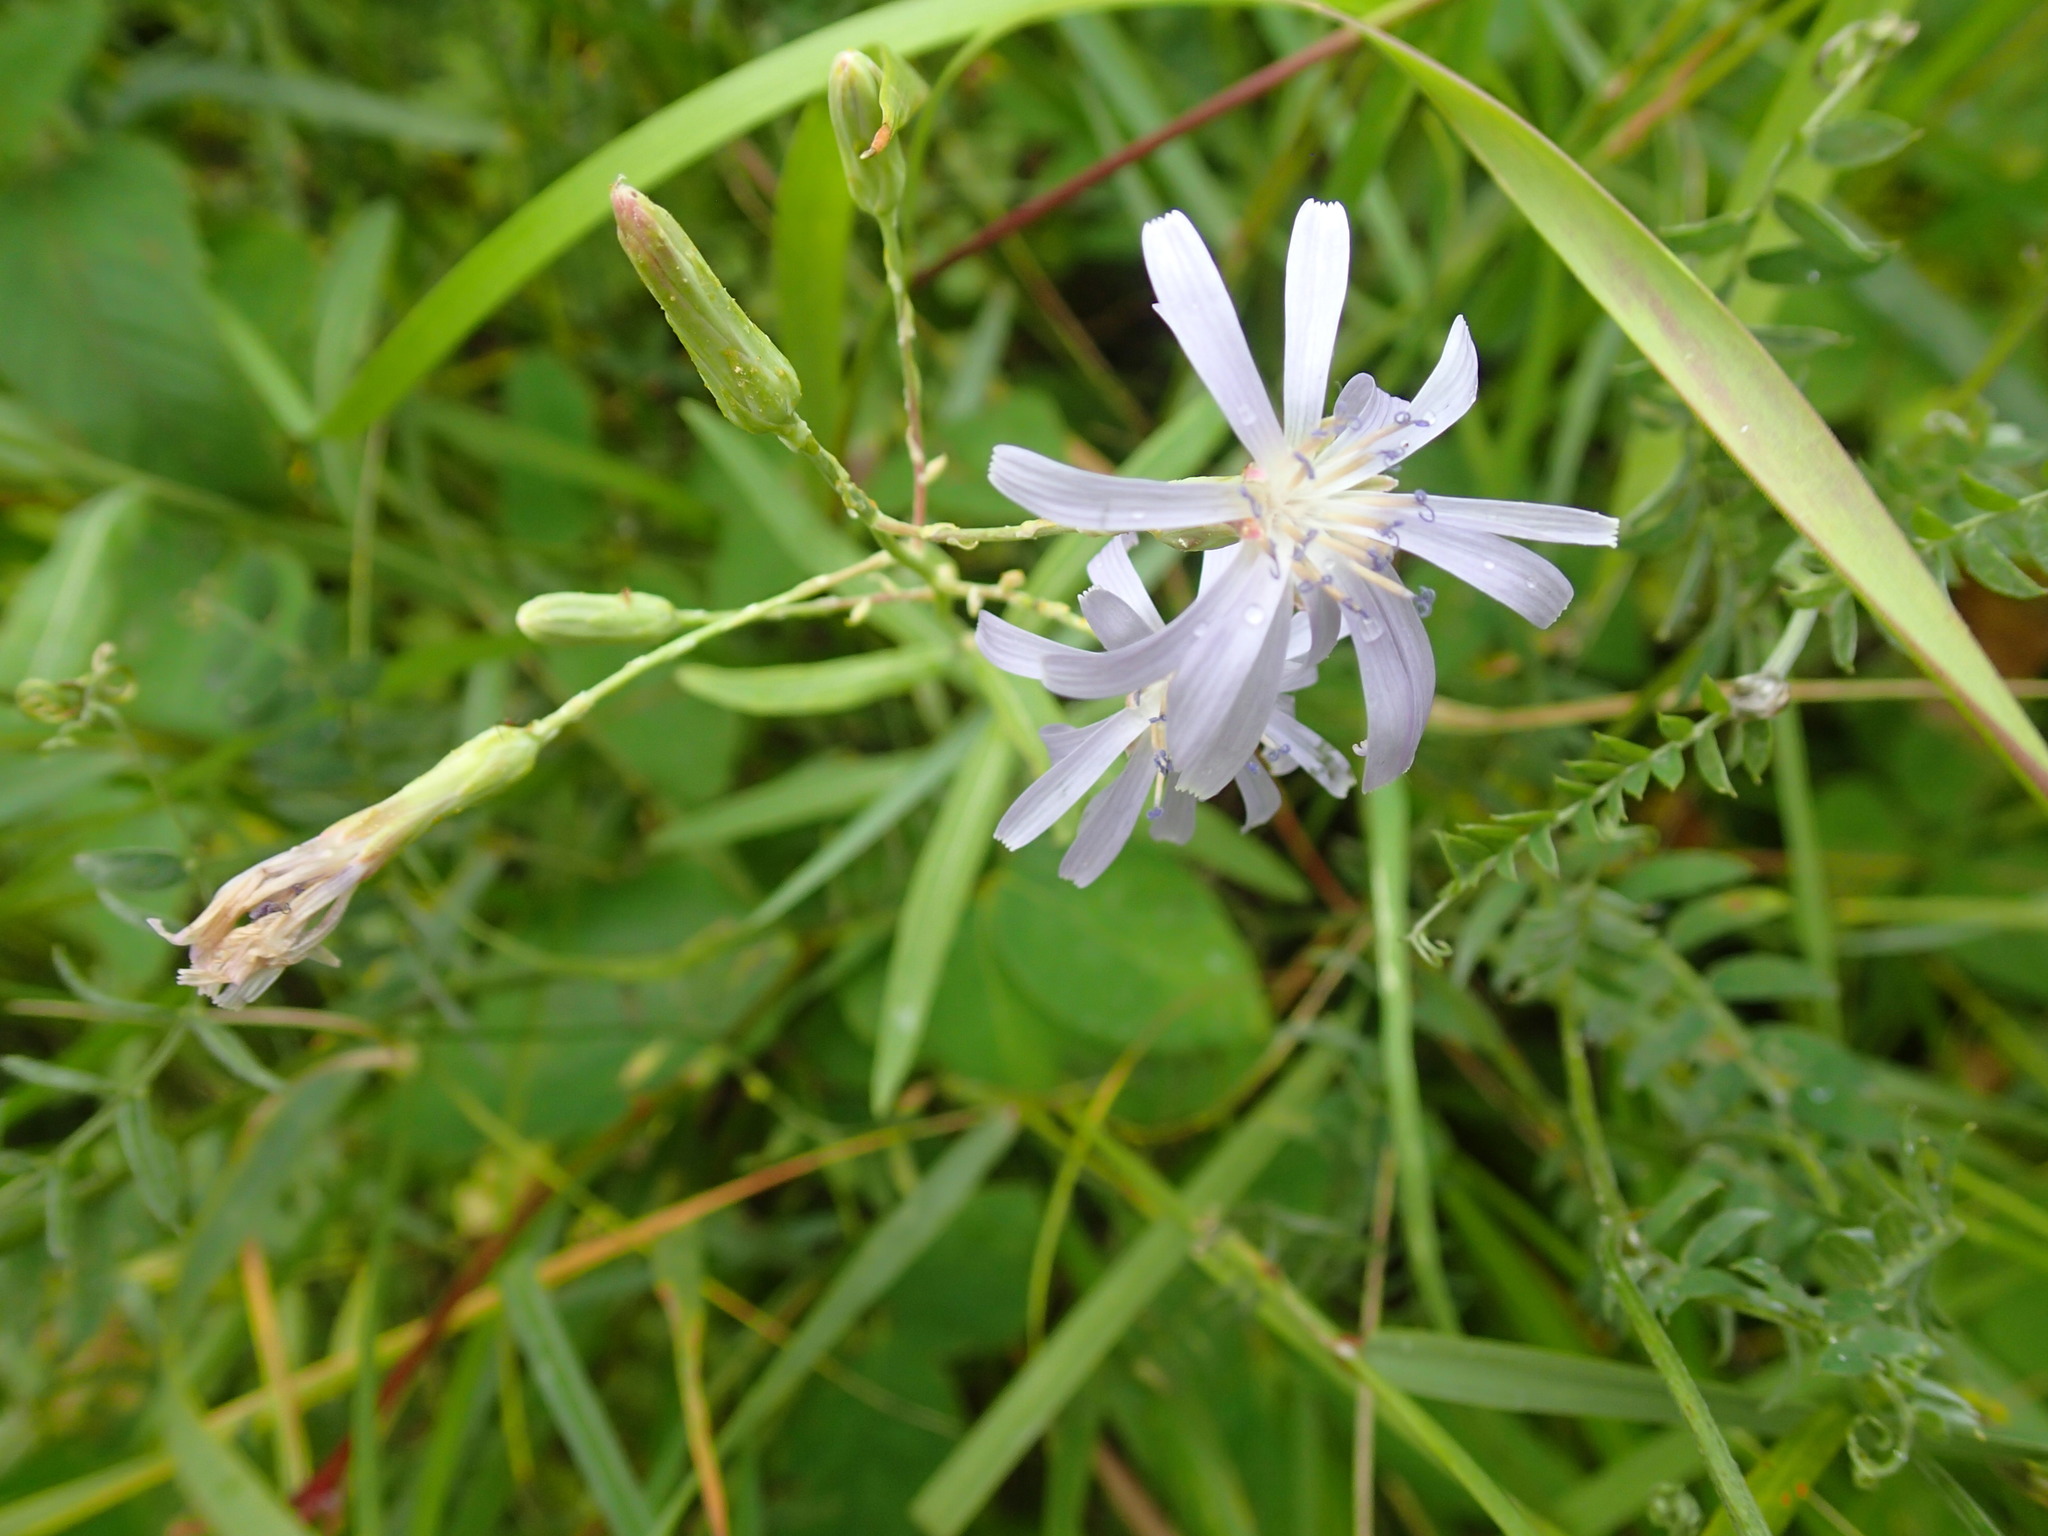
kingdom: Plantae
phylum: Tracheophyta
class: Magnoliopsida
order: Asterales
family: Asteraceae
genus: Cichorium
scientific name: Cichorium intybus
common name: Chicory
